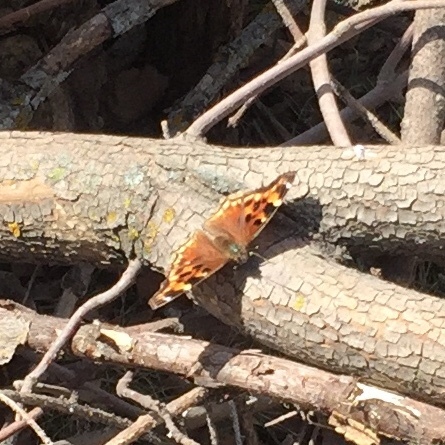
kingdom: Animalia
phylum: Arthropoda
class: Insecta
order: Lepidoptera
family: Nymphalidae
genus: Polygonia
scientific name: Polygonia vaualbum
